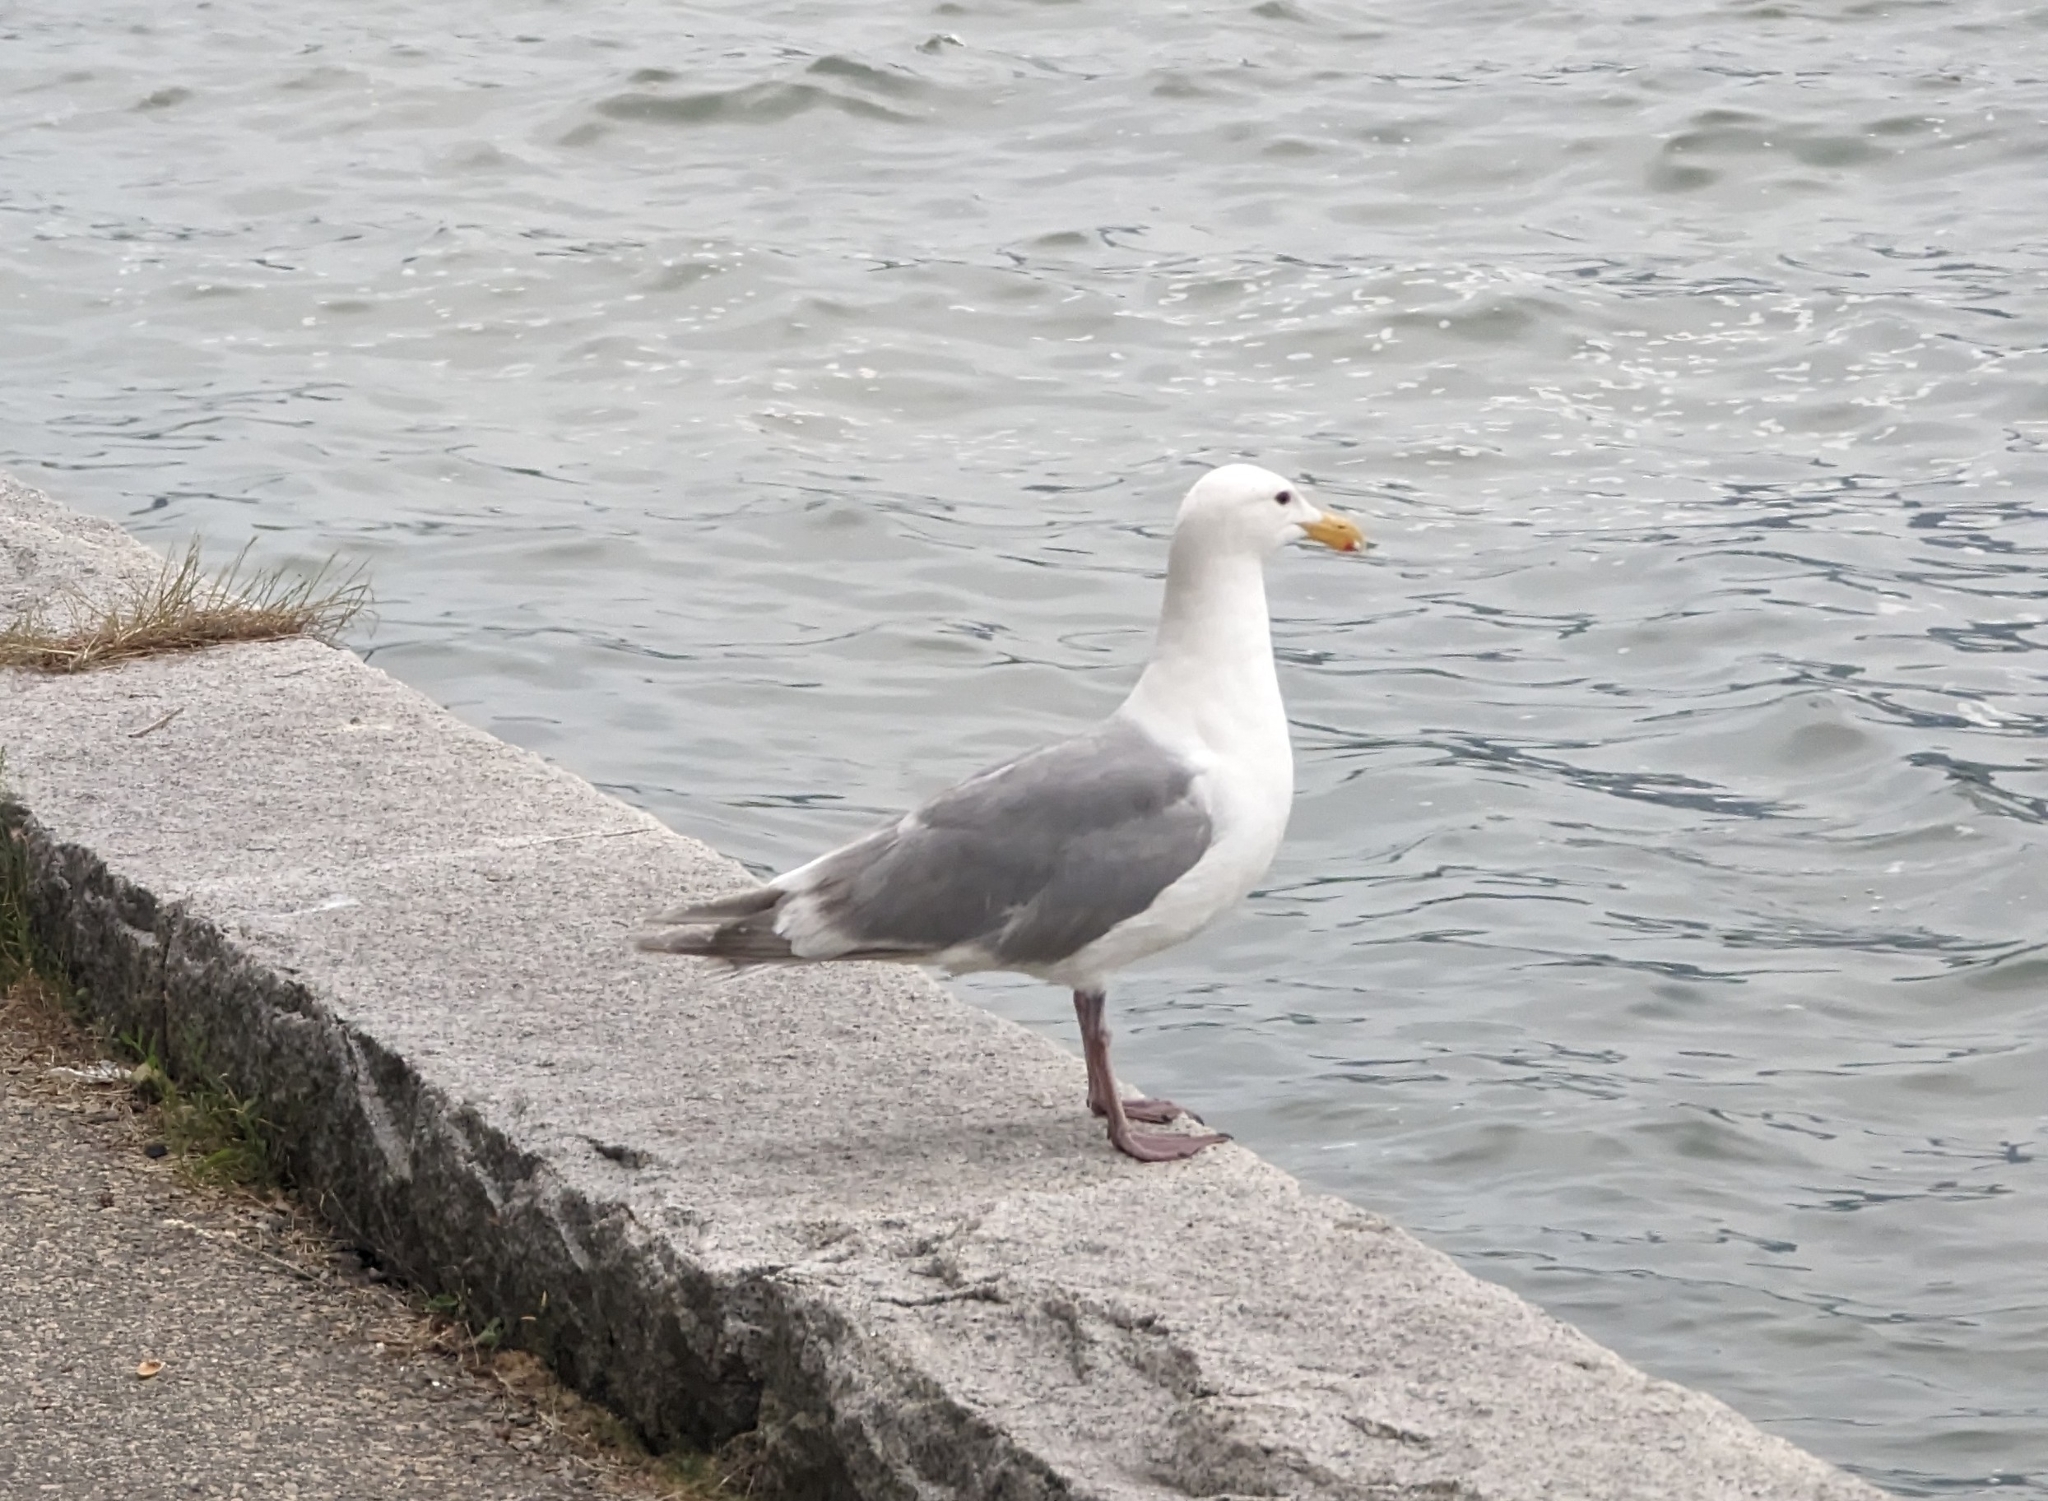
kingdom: Animalia
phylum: Chordata
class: Aves
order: Charadriiformes
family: Laridae
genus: Larus
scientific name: Larus
